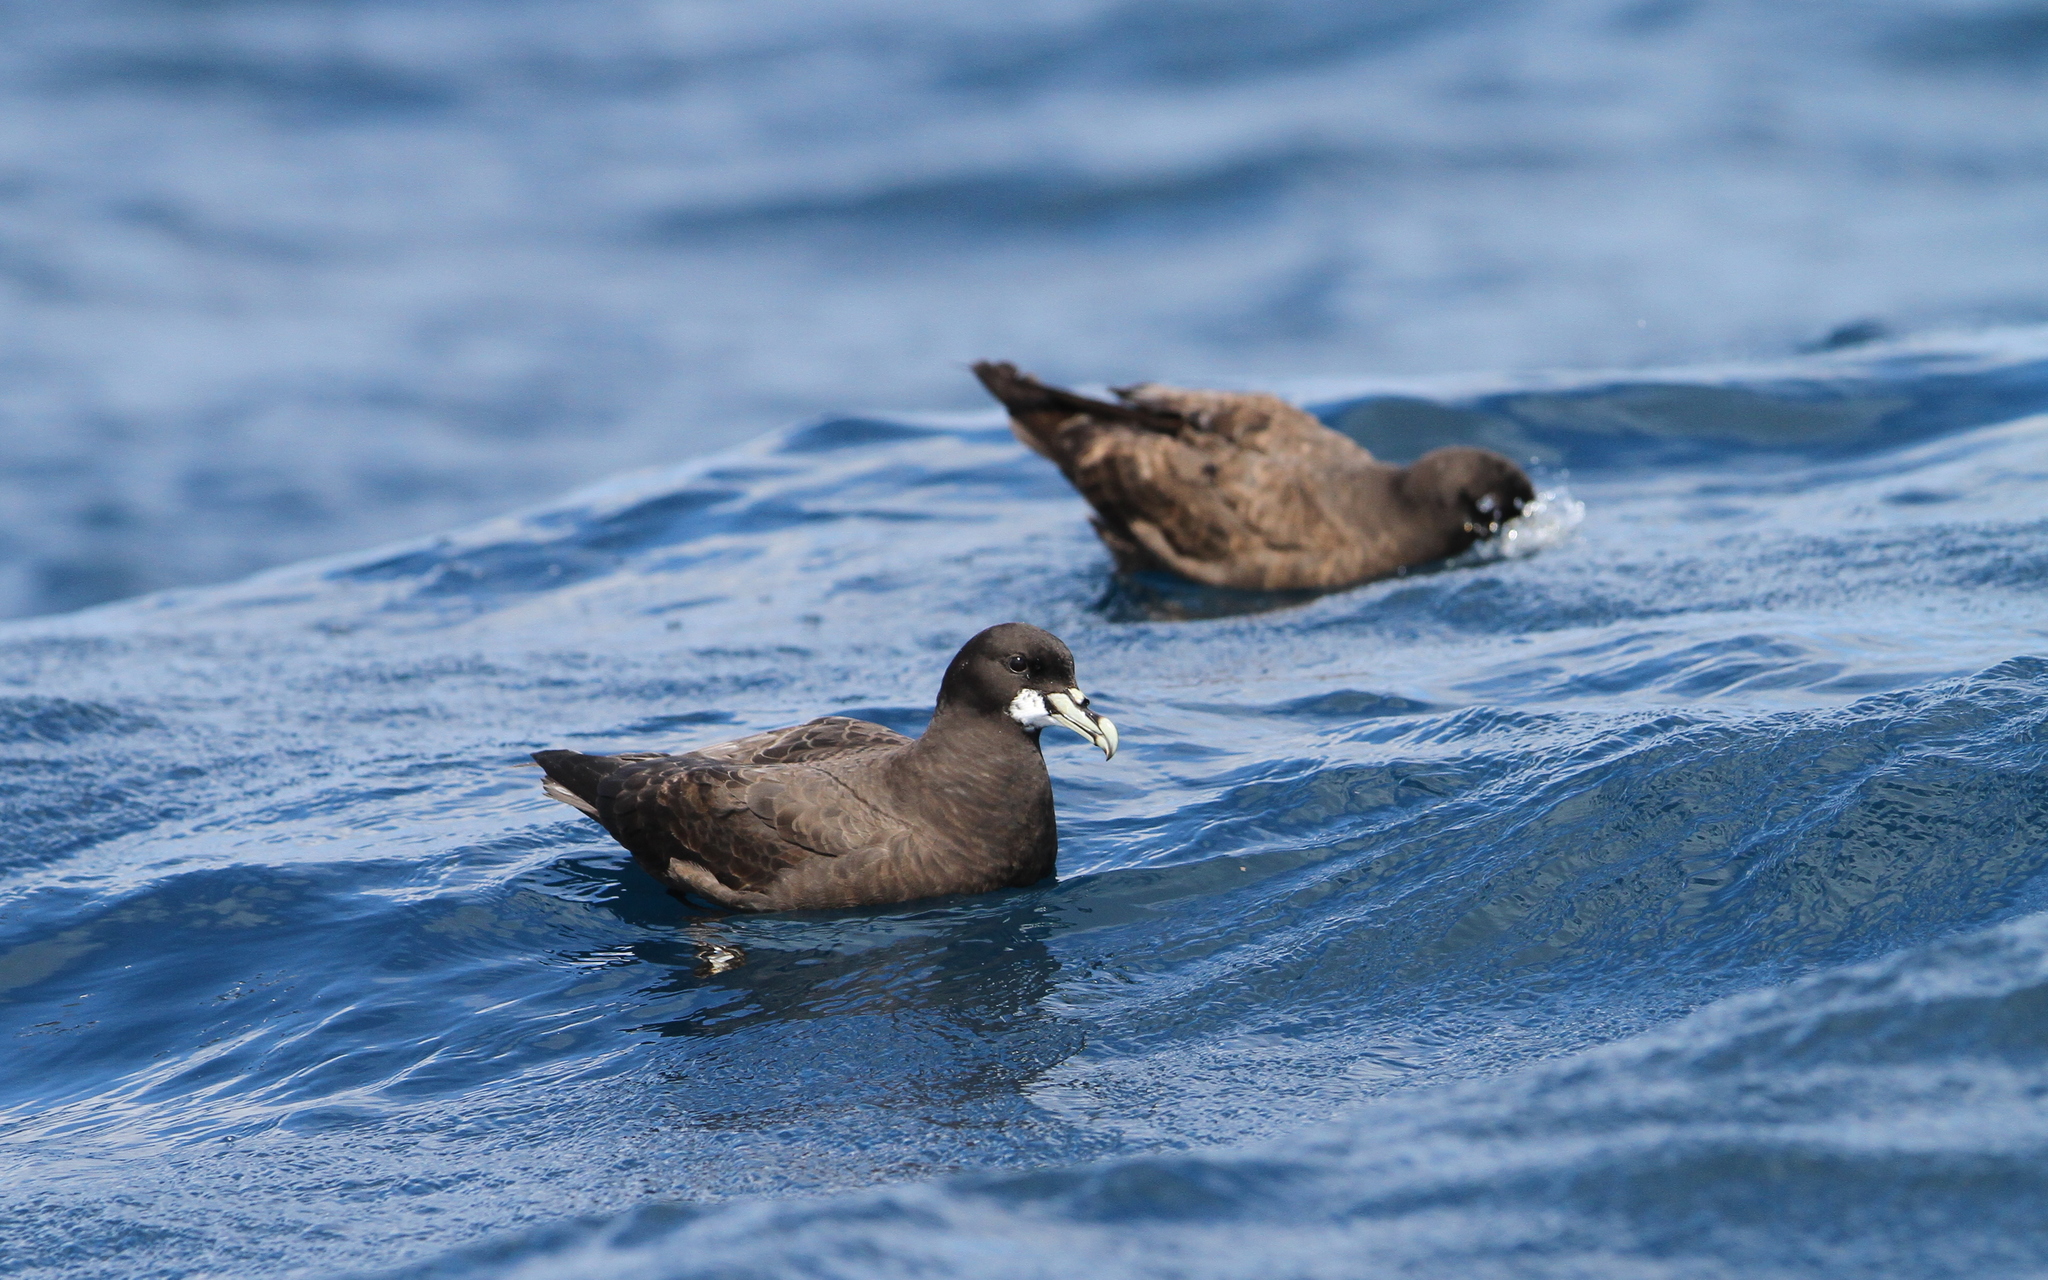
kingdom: Animalia
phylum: Chordata
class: Aves
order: Procellariiformes
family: Procellariidae
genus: Procellaria
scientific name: Procellaria aequinoctialis
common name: White-chinned petrel
